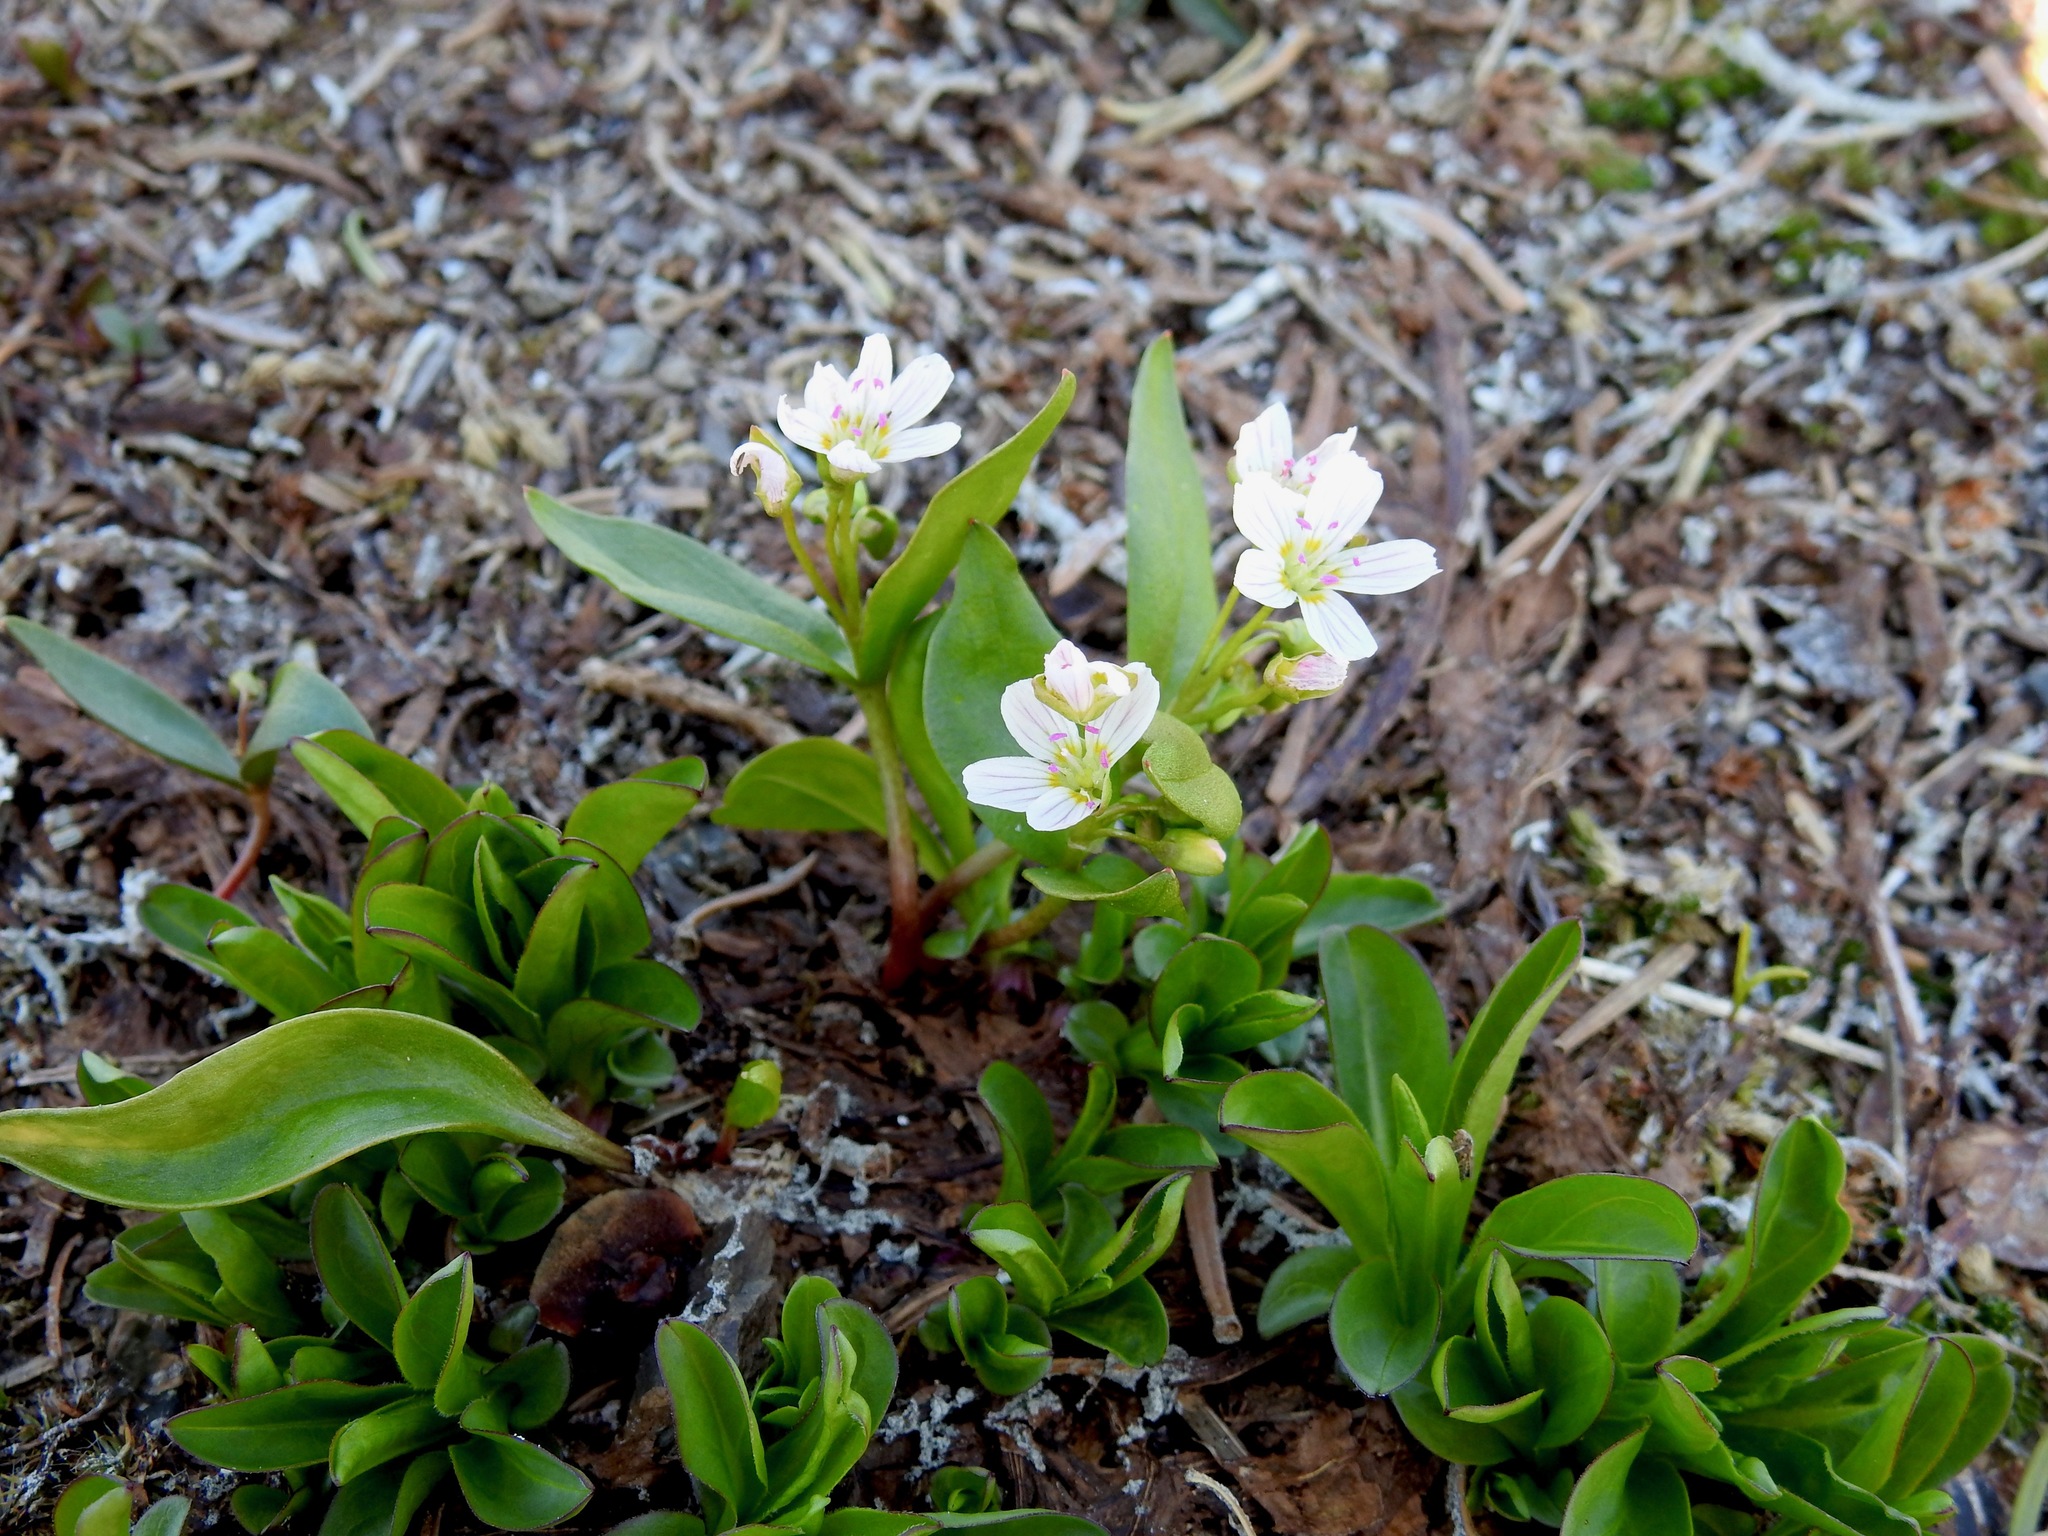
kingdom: Plantae
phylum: Tracheophyta
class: Magnoliopsida
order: Caryophyllales
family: Montiaceae
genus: Claytonia
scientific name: Claytonia lanceolata
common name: Western spring-beauty
